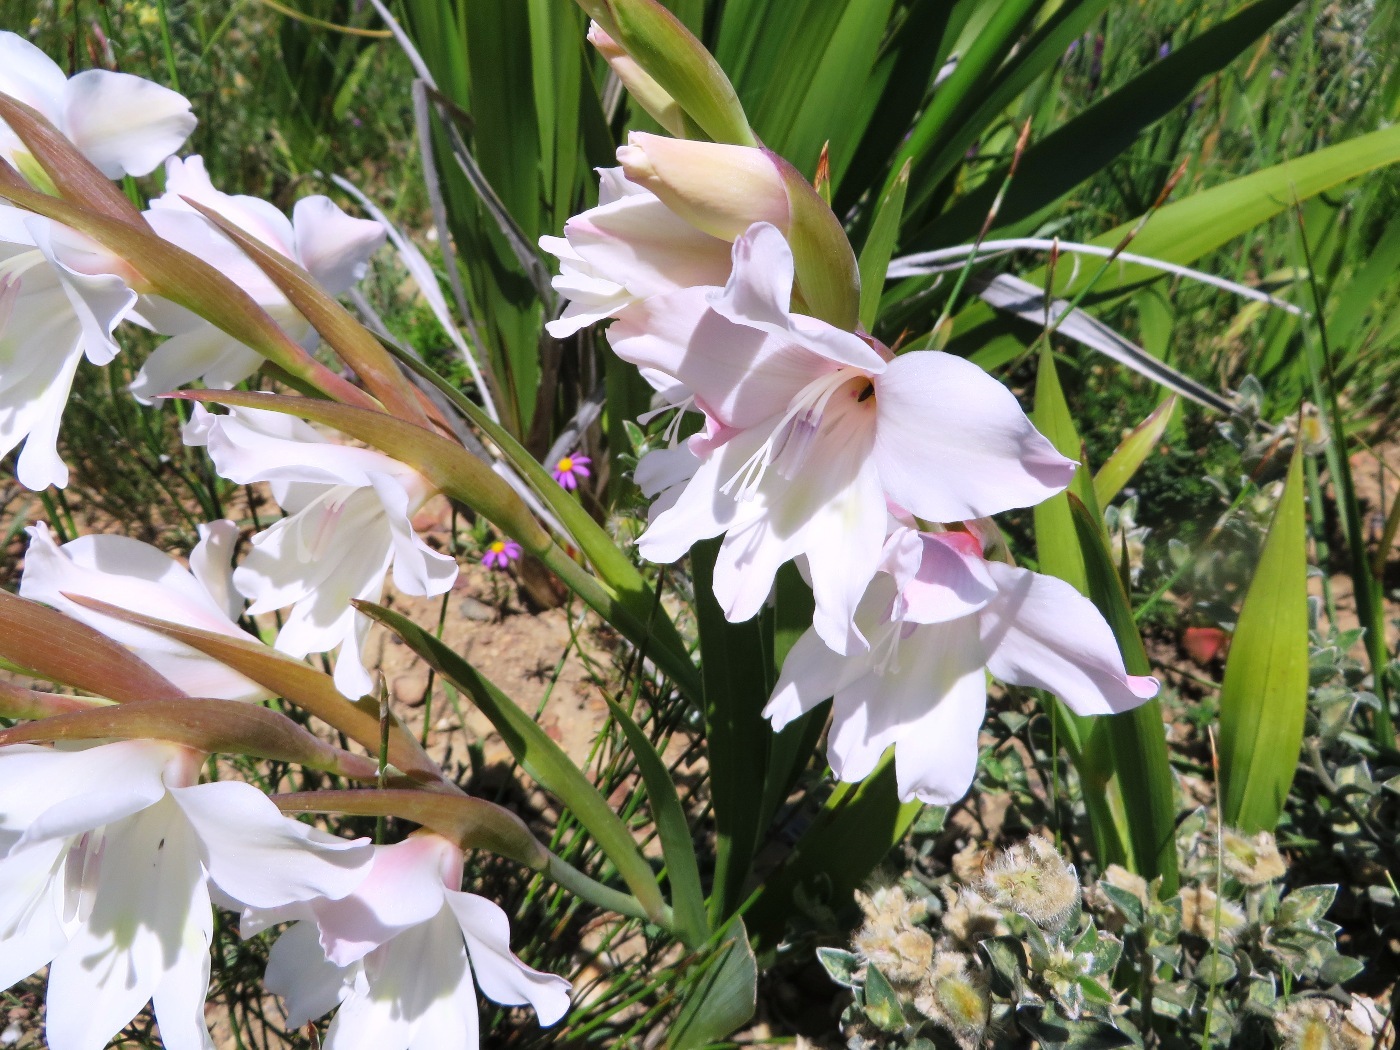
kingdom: Plantae
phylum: Tracheophyta
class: Liliopsida
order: Asparagales
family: Iridaceae
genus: Gladiolus
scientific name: Gladiolus carneus
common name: Painted-lady
